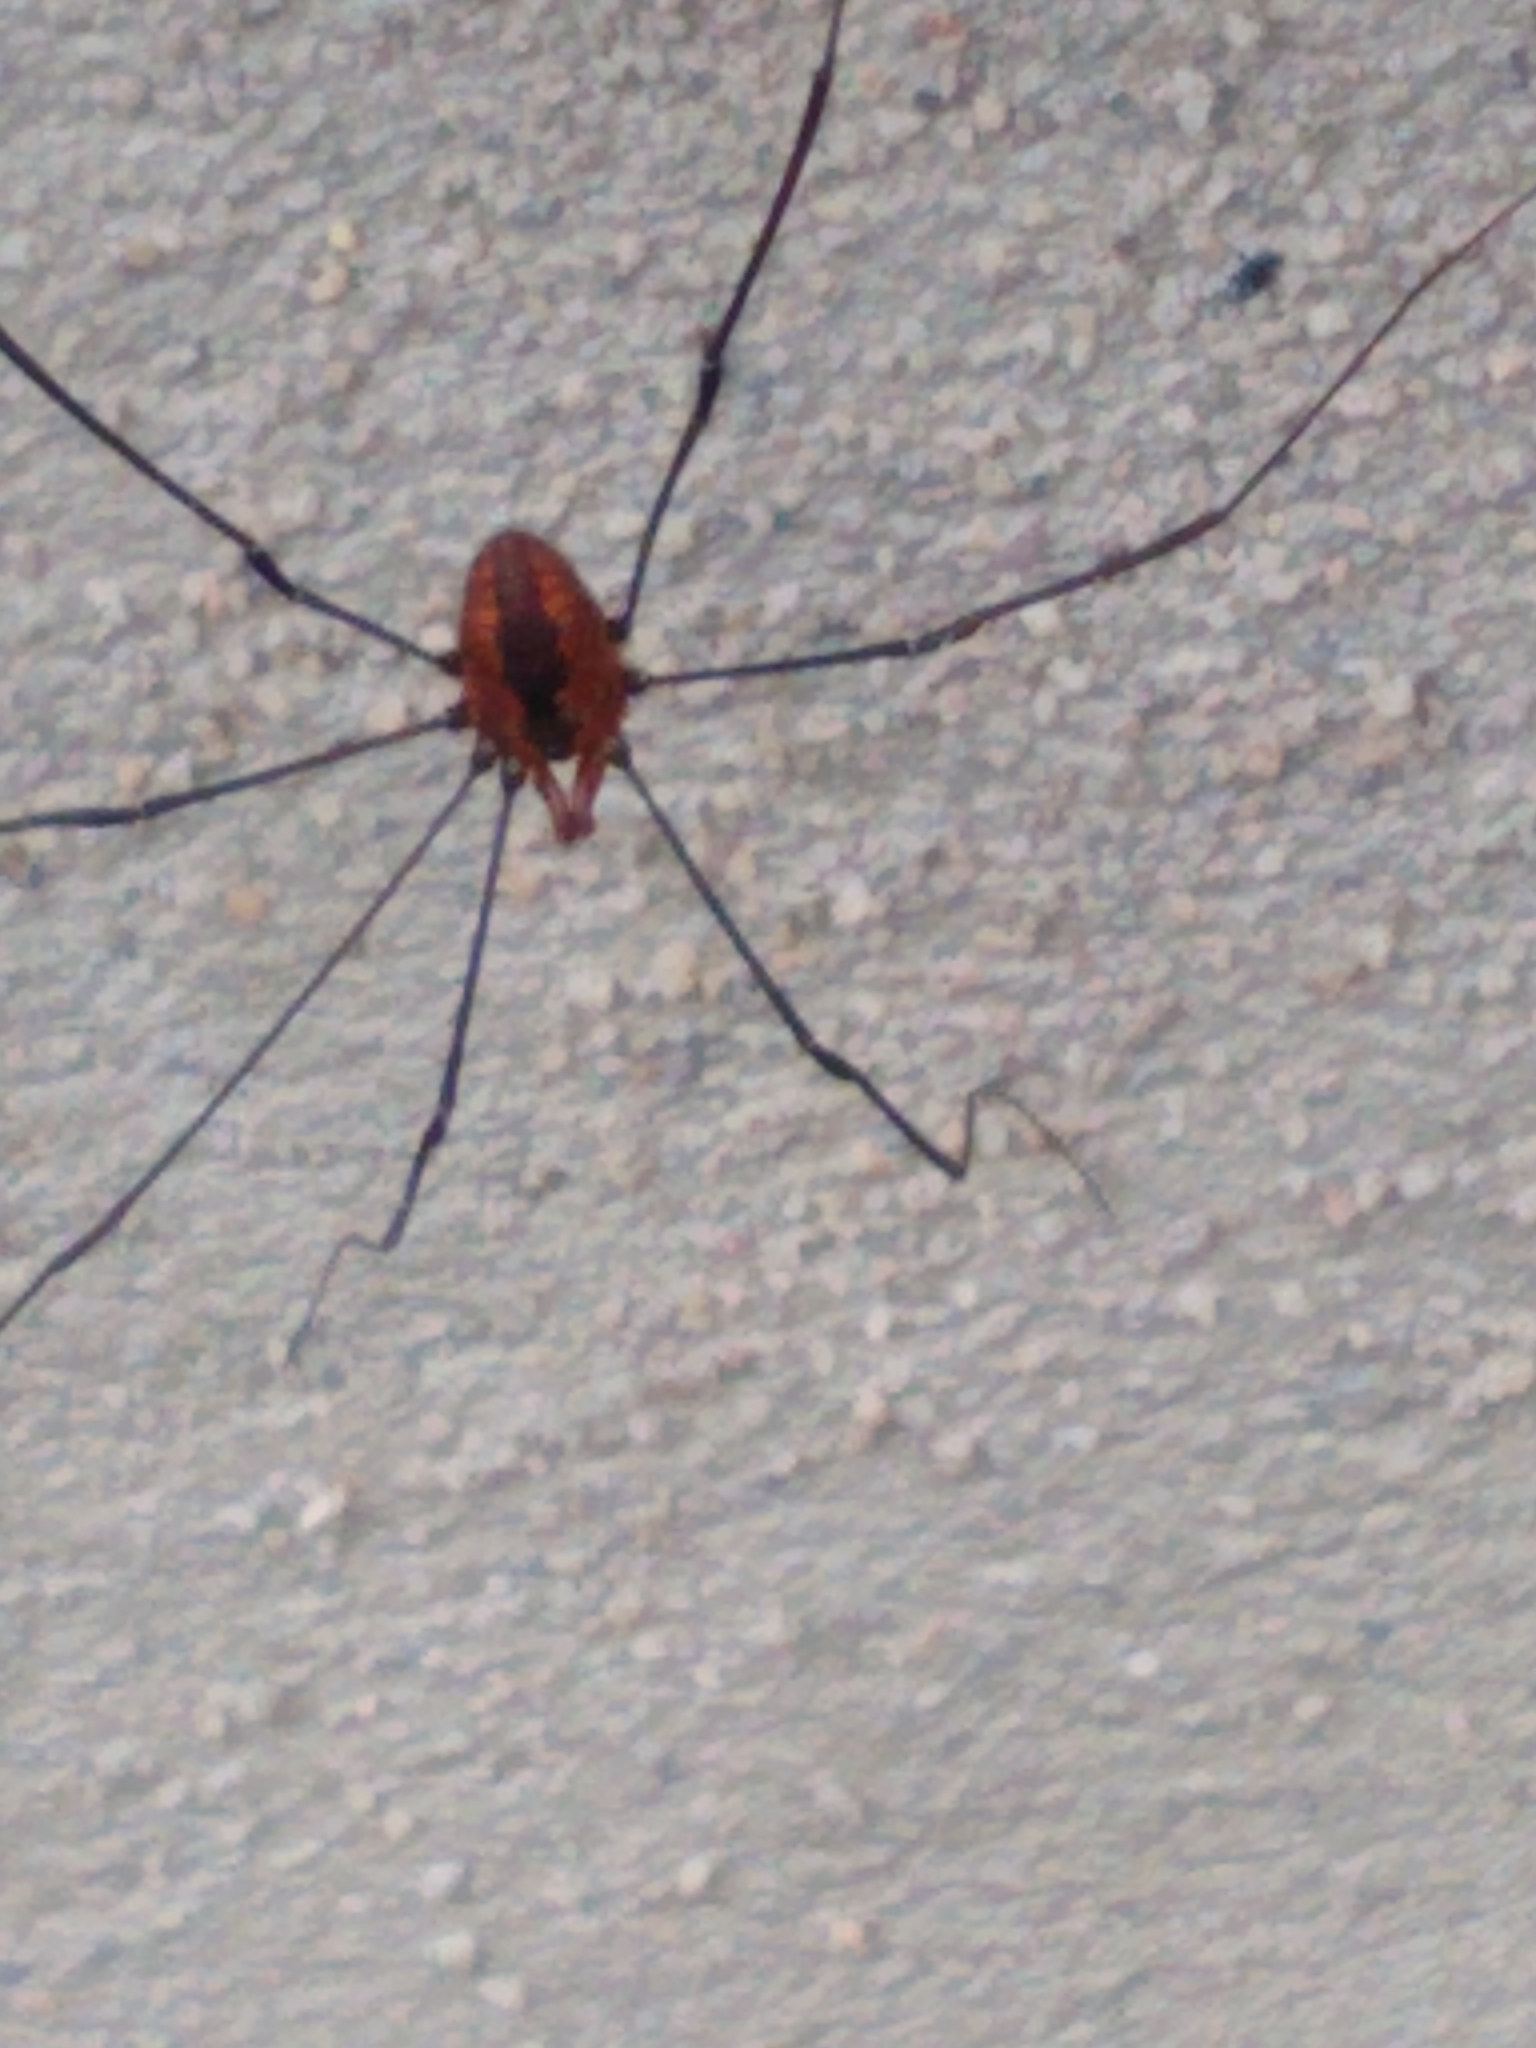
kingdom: Animalia
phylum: Arthropoda
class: Arachnida
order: Opiliones
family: Sclerosomatidae
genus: Leiobunum
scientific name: Leiobunum vittatum
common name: Eastern harvestman
